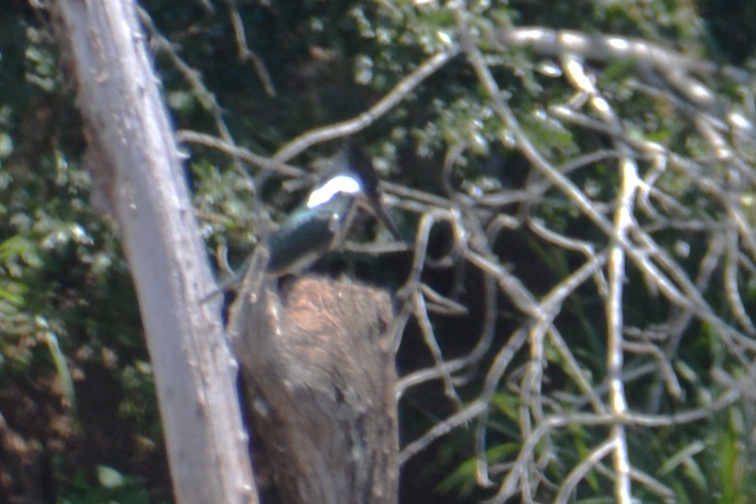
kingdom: Animalia
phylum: Chordata
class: Aves
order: Coraciiformes
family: Alcedinidae
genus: Chloroceryle
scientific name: Chloroceryle amazona
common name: Amazon kingfisher
